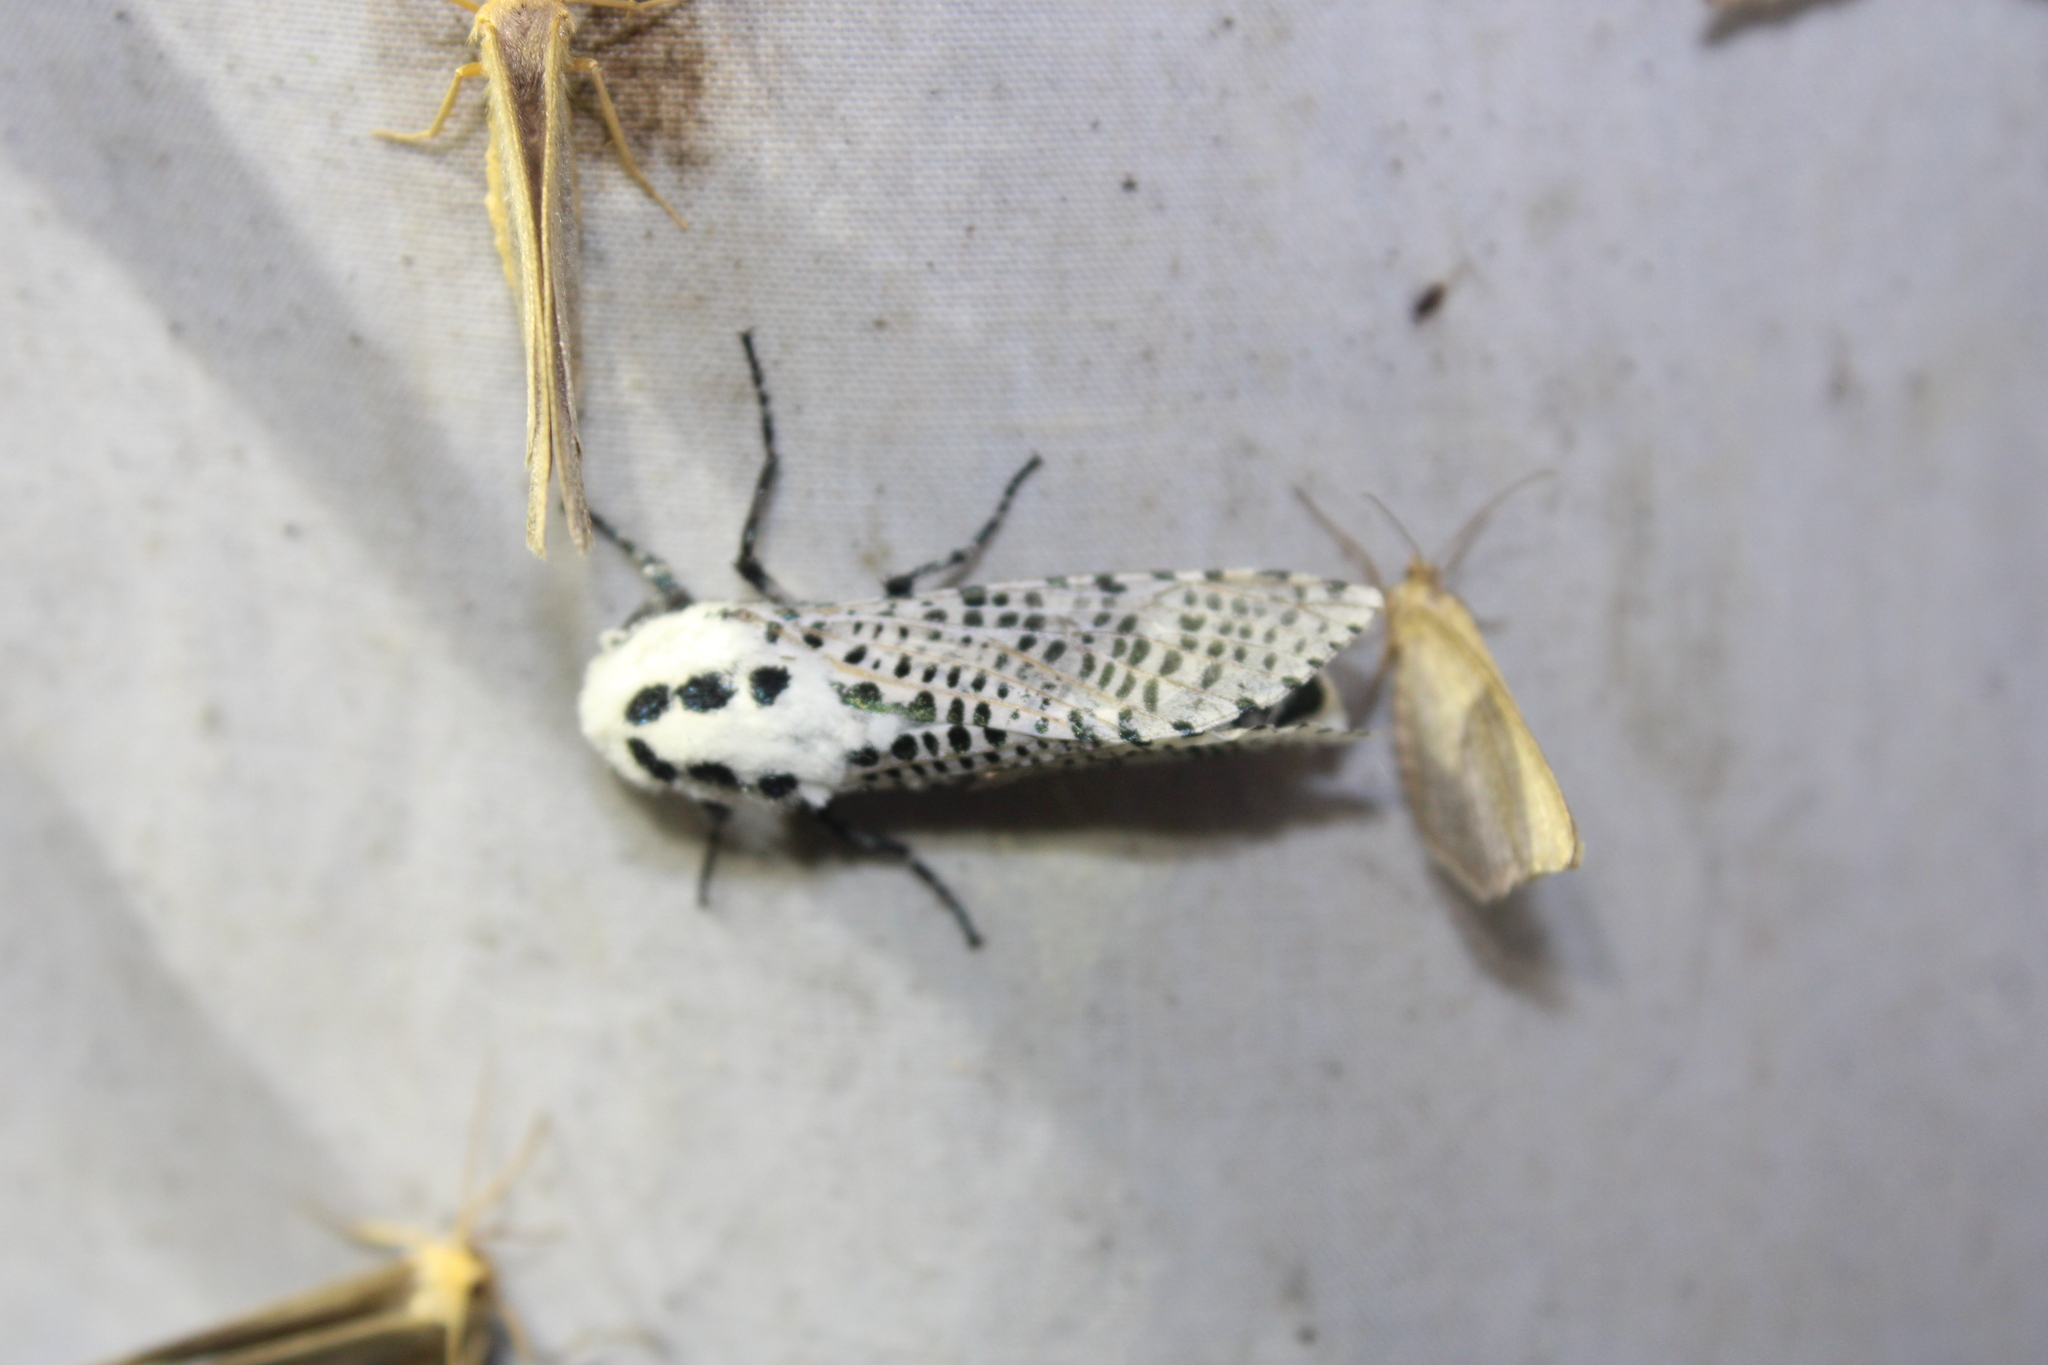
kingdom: Animalia
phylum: Arthropoda
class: Insecta
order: Lepidoptera
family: Cossidae
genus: Zeuzera
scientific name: Zeuzera pyrina
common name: Leopard moth
